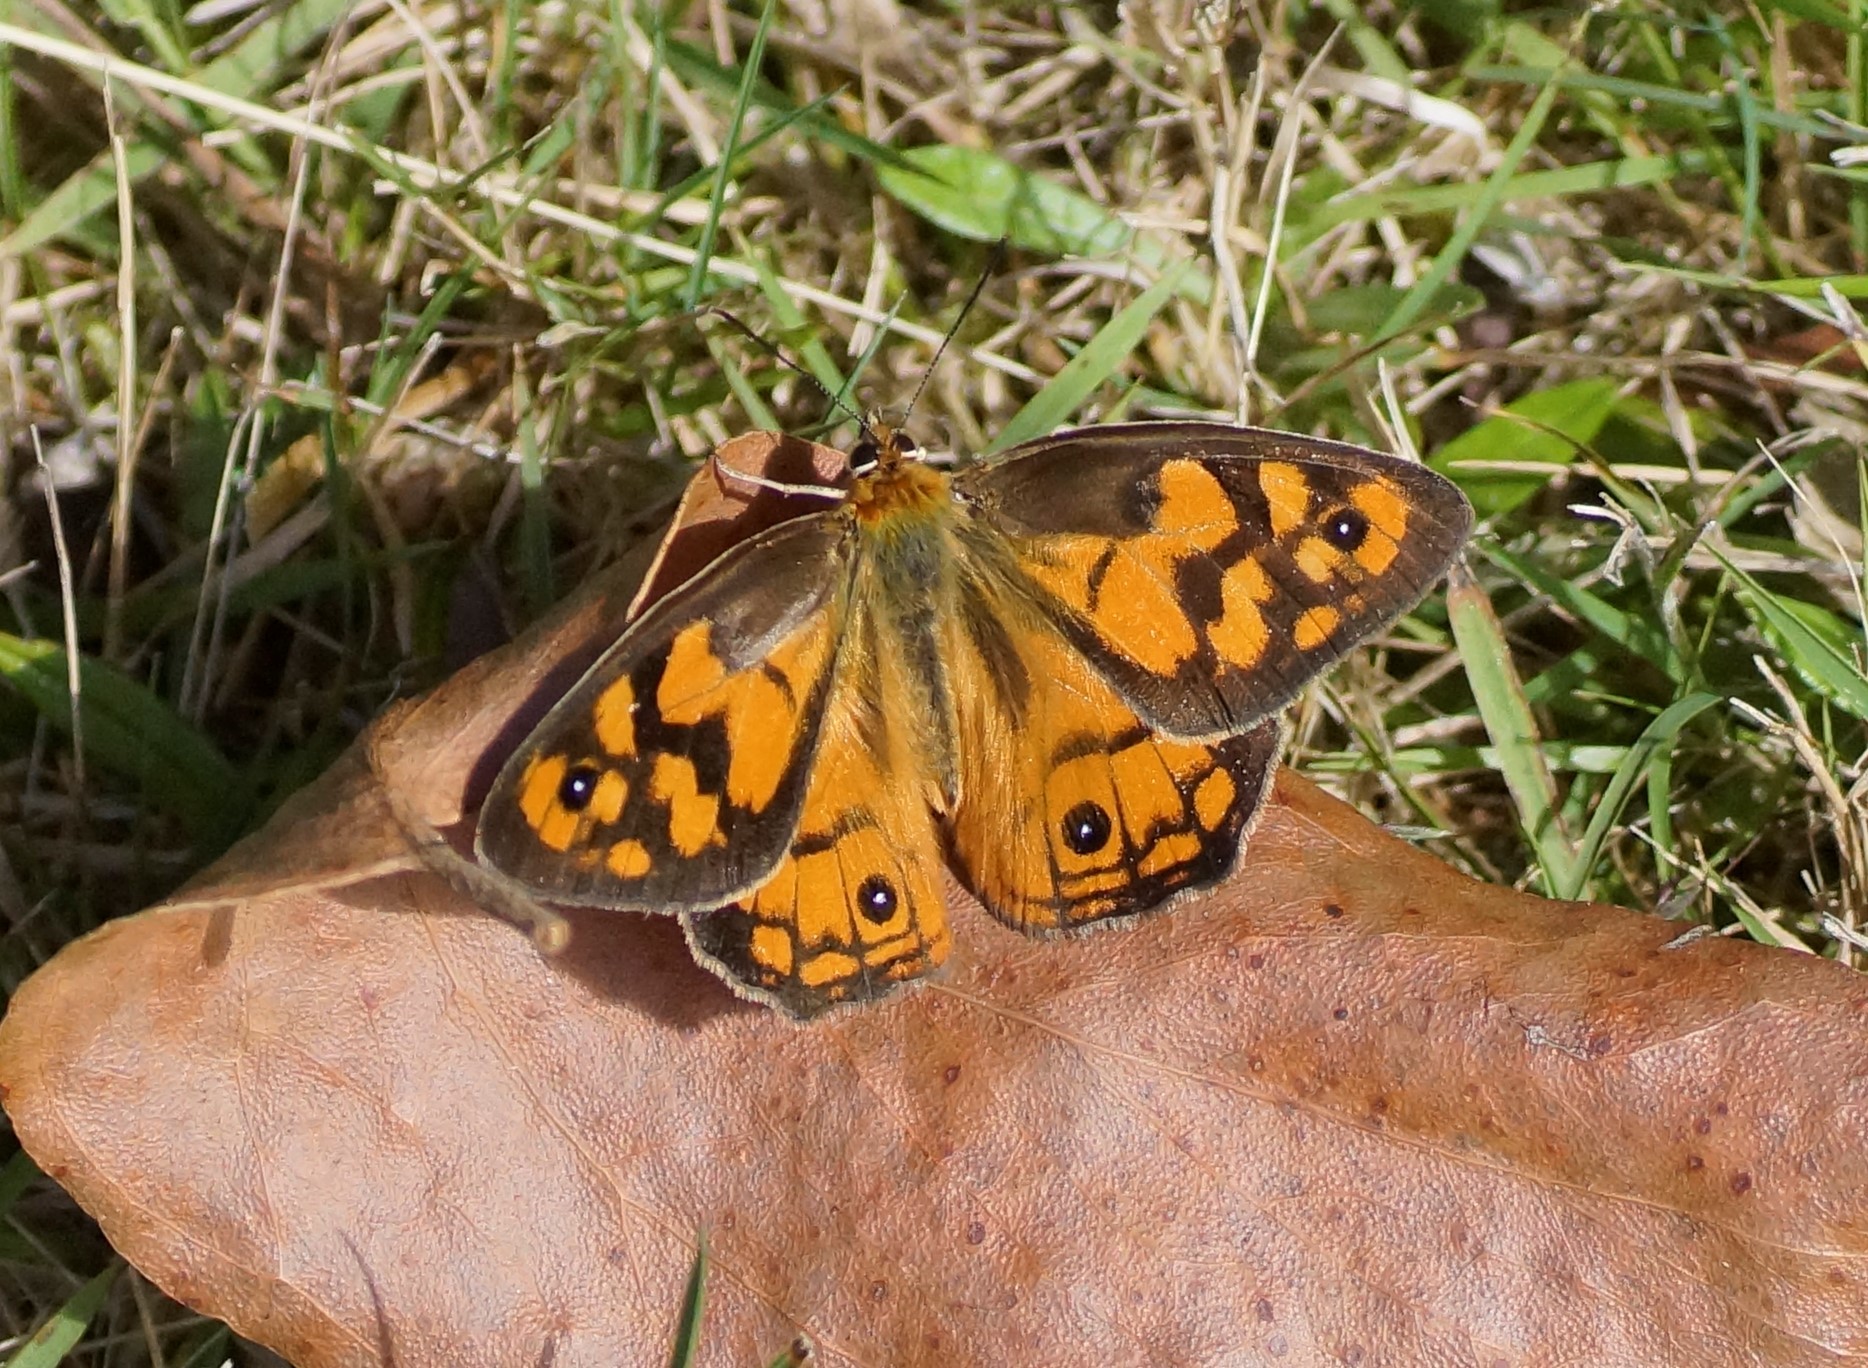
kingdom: Animalia
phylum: Arthropoda
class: Insecta
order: Lepidoptera
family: Nymphalidae
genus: Heteronympha
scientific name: Heteronympha penelope
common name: Shouldered brown
